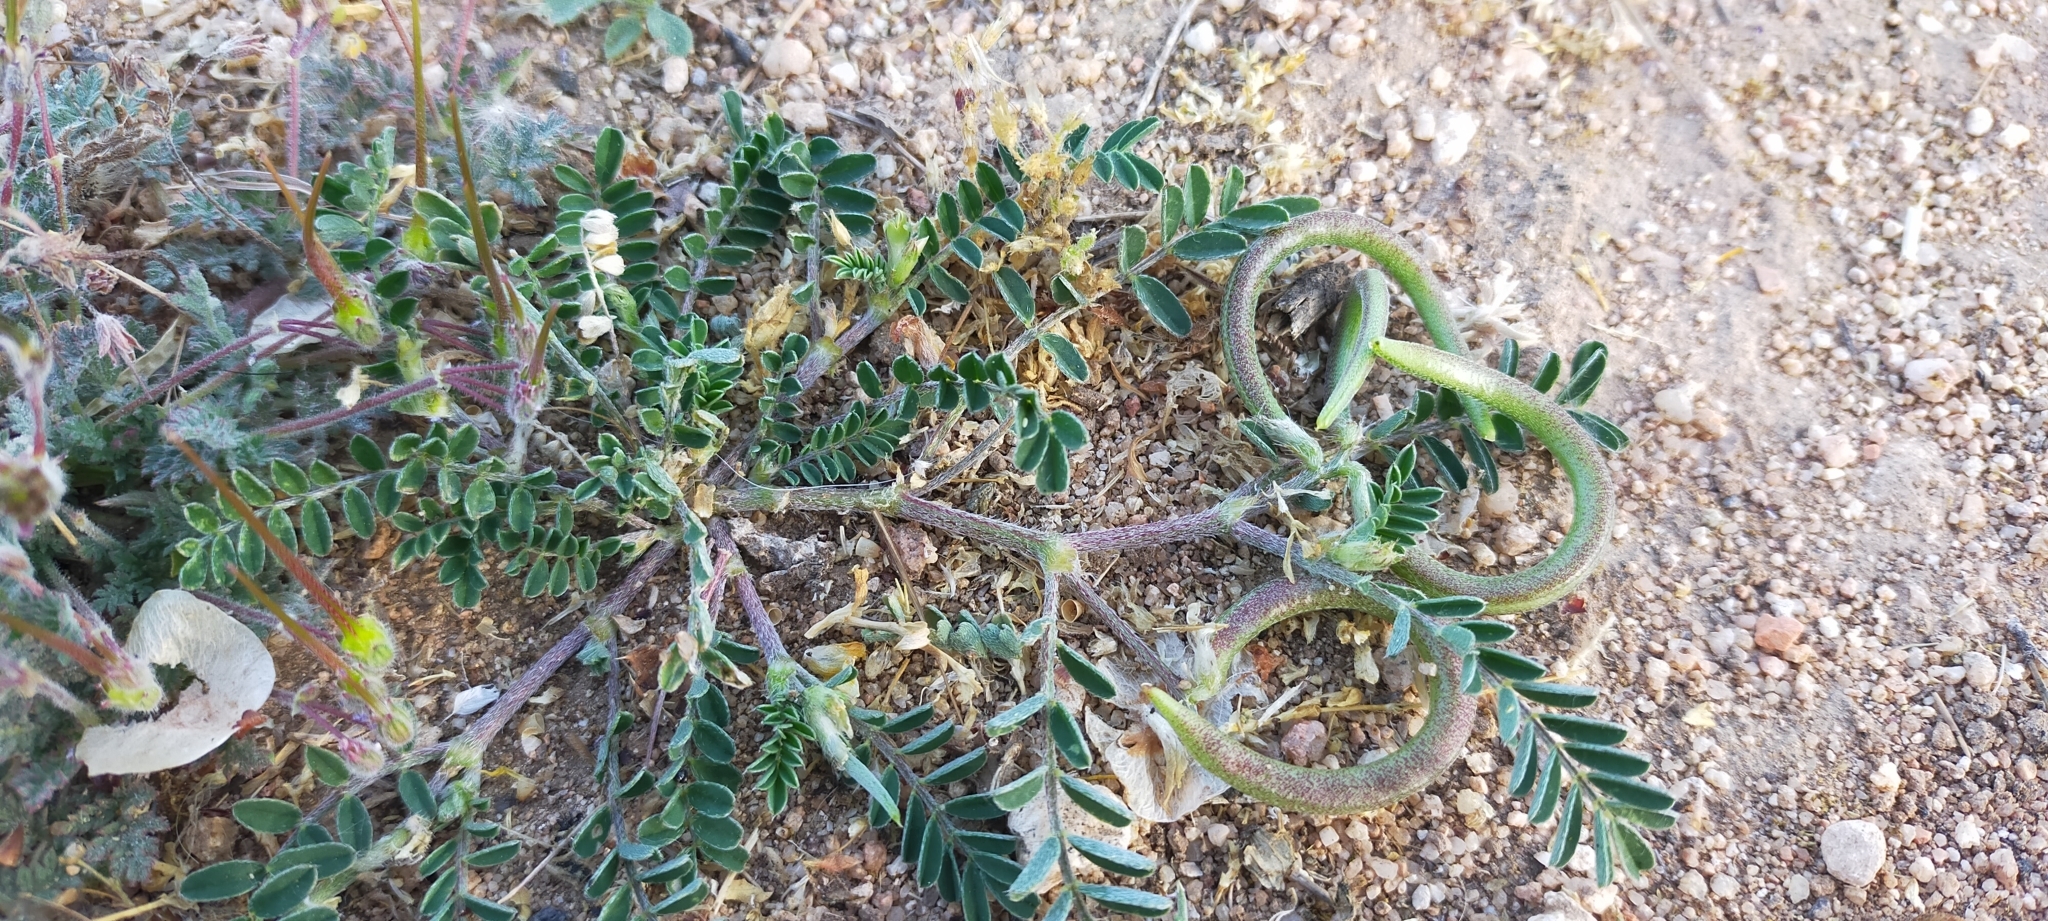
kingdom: Plantae
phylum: Tracheophyta
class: Magnoliopsida
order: Fabales
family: Fabaceae
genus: Astragalus
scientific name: Astragalus hamosus
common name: European milkvetch
